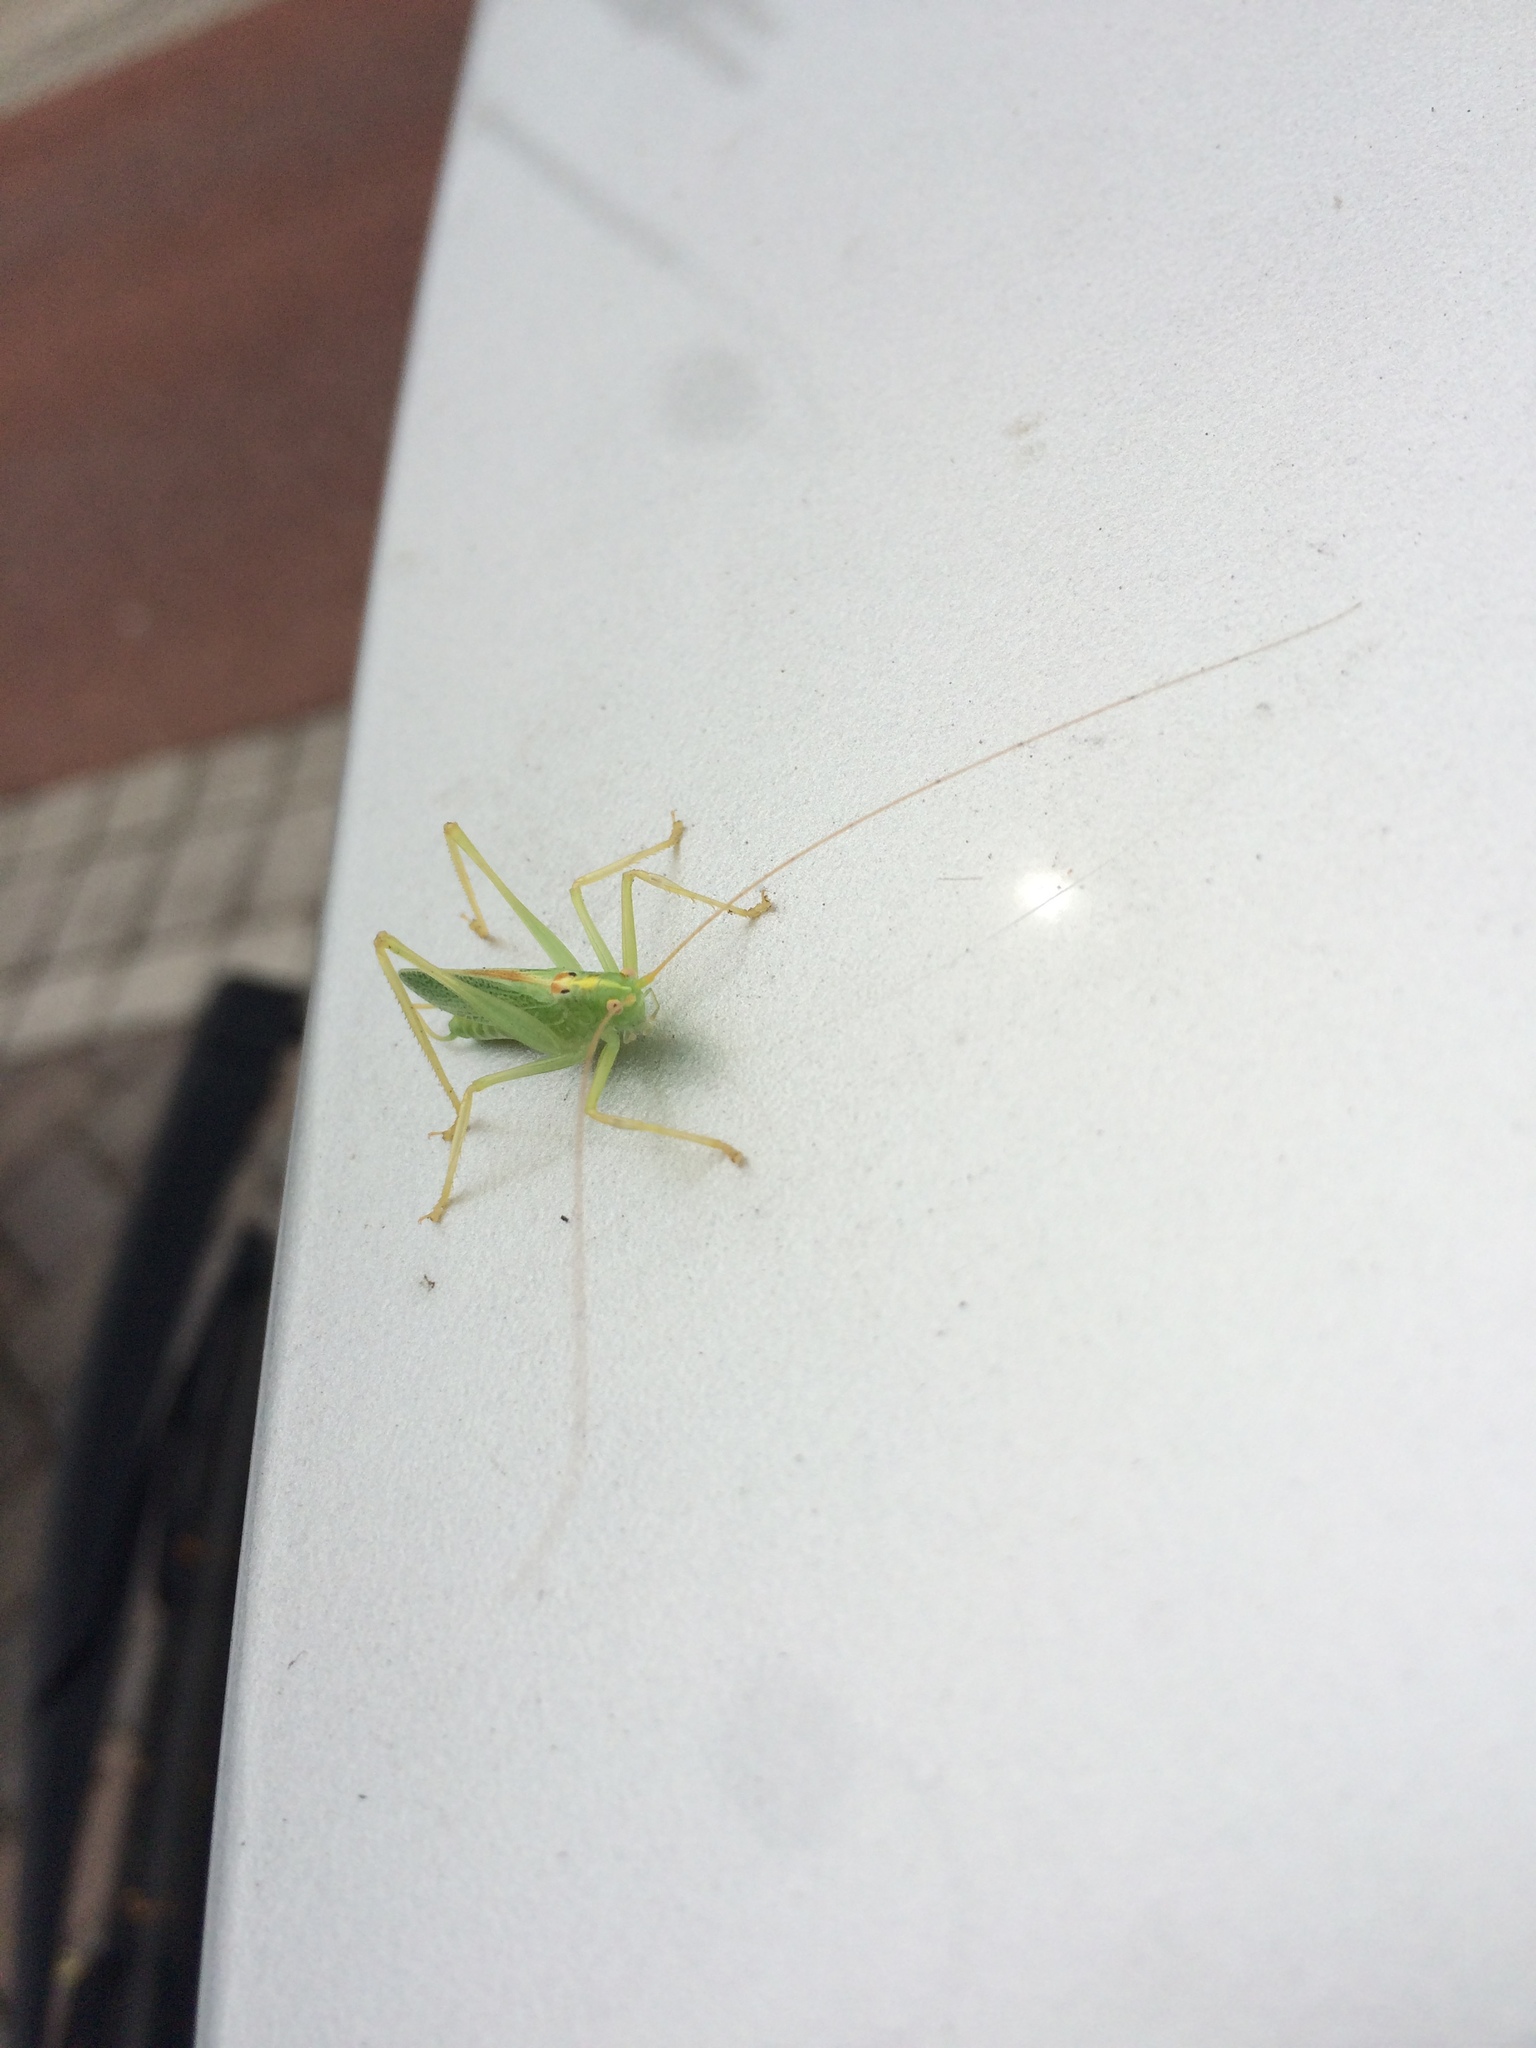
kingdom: Animalia
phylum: Arthropoda
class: Insecta
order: Orthoptera
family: Tettigoniidae
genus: Meconema
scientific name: Meconema thalassinum
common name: Oak bush-cricket
